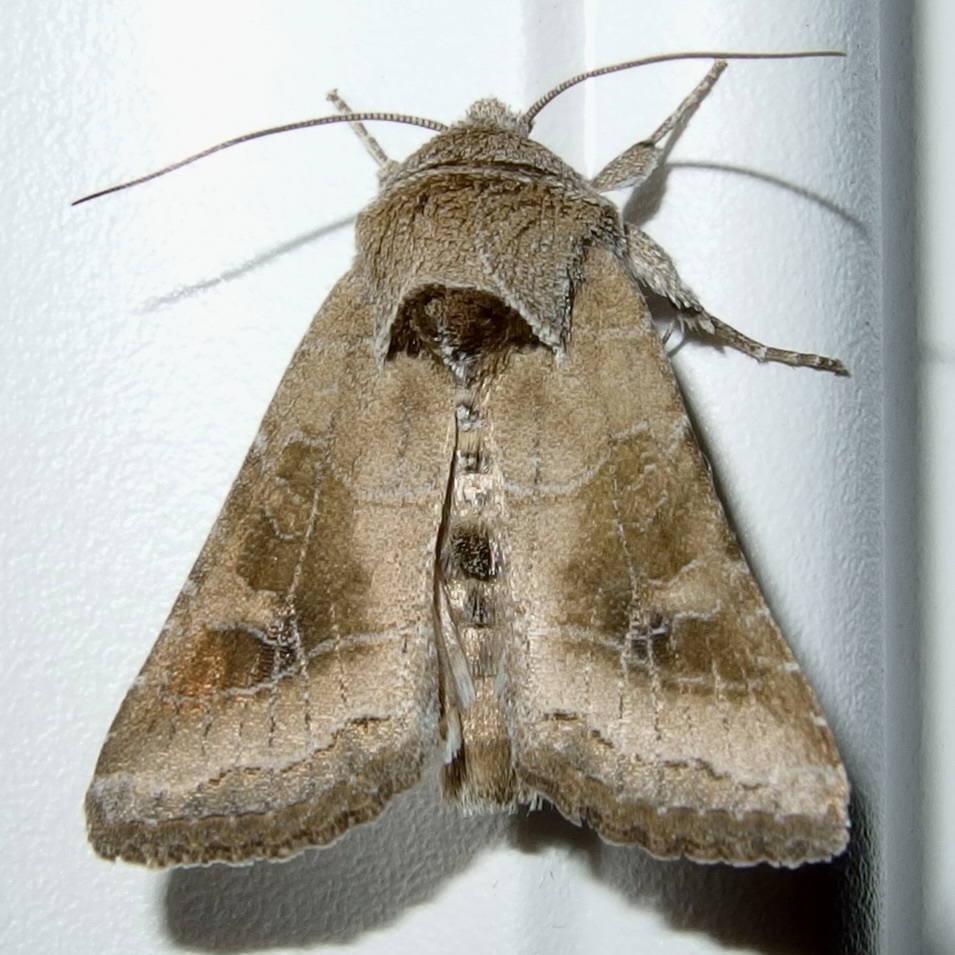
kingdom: Animalia
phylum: Arthropoda
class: Insecta
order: Lepidoptera
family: Noctuidae
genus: Lacinipolia
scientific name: Lacinipolia triplehorni
